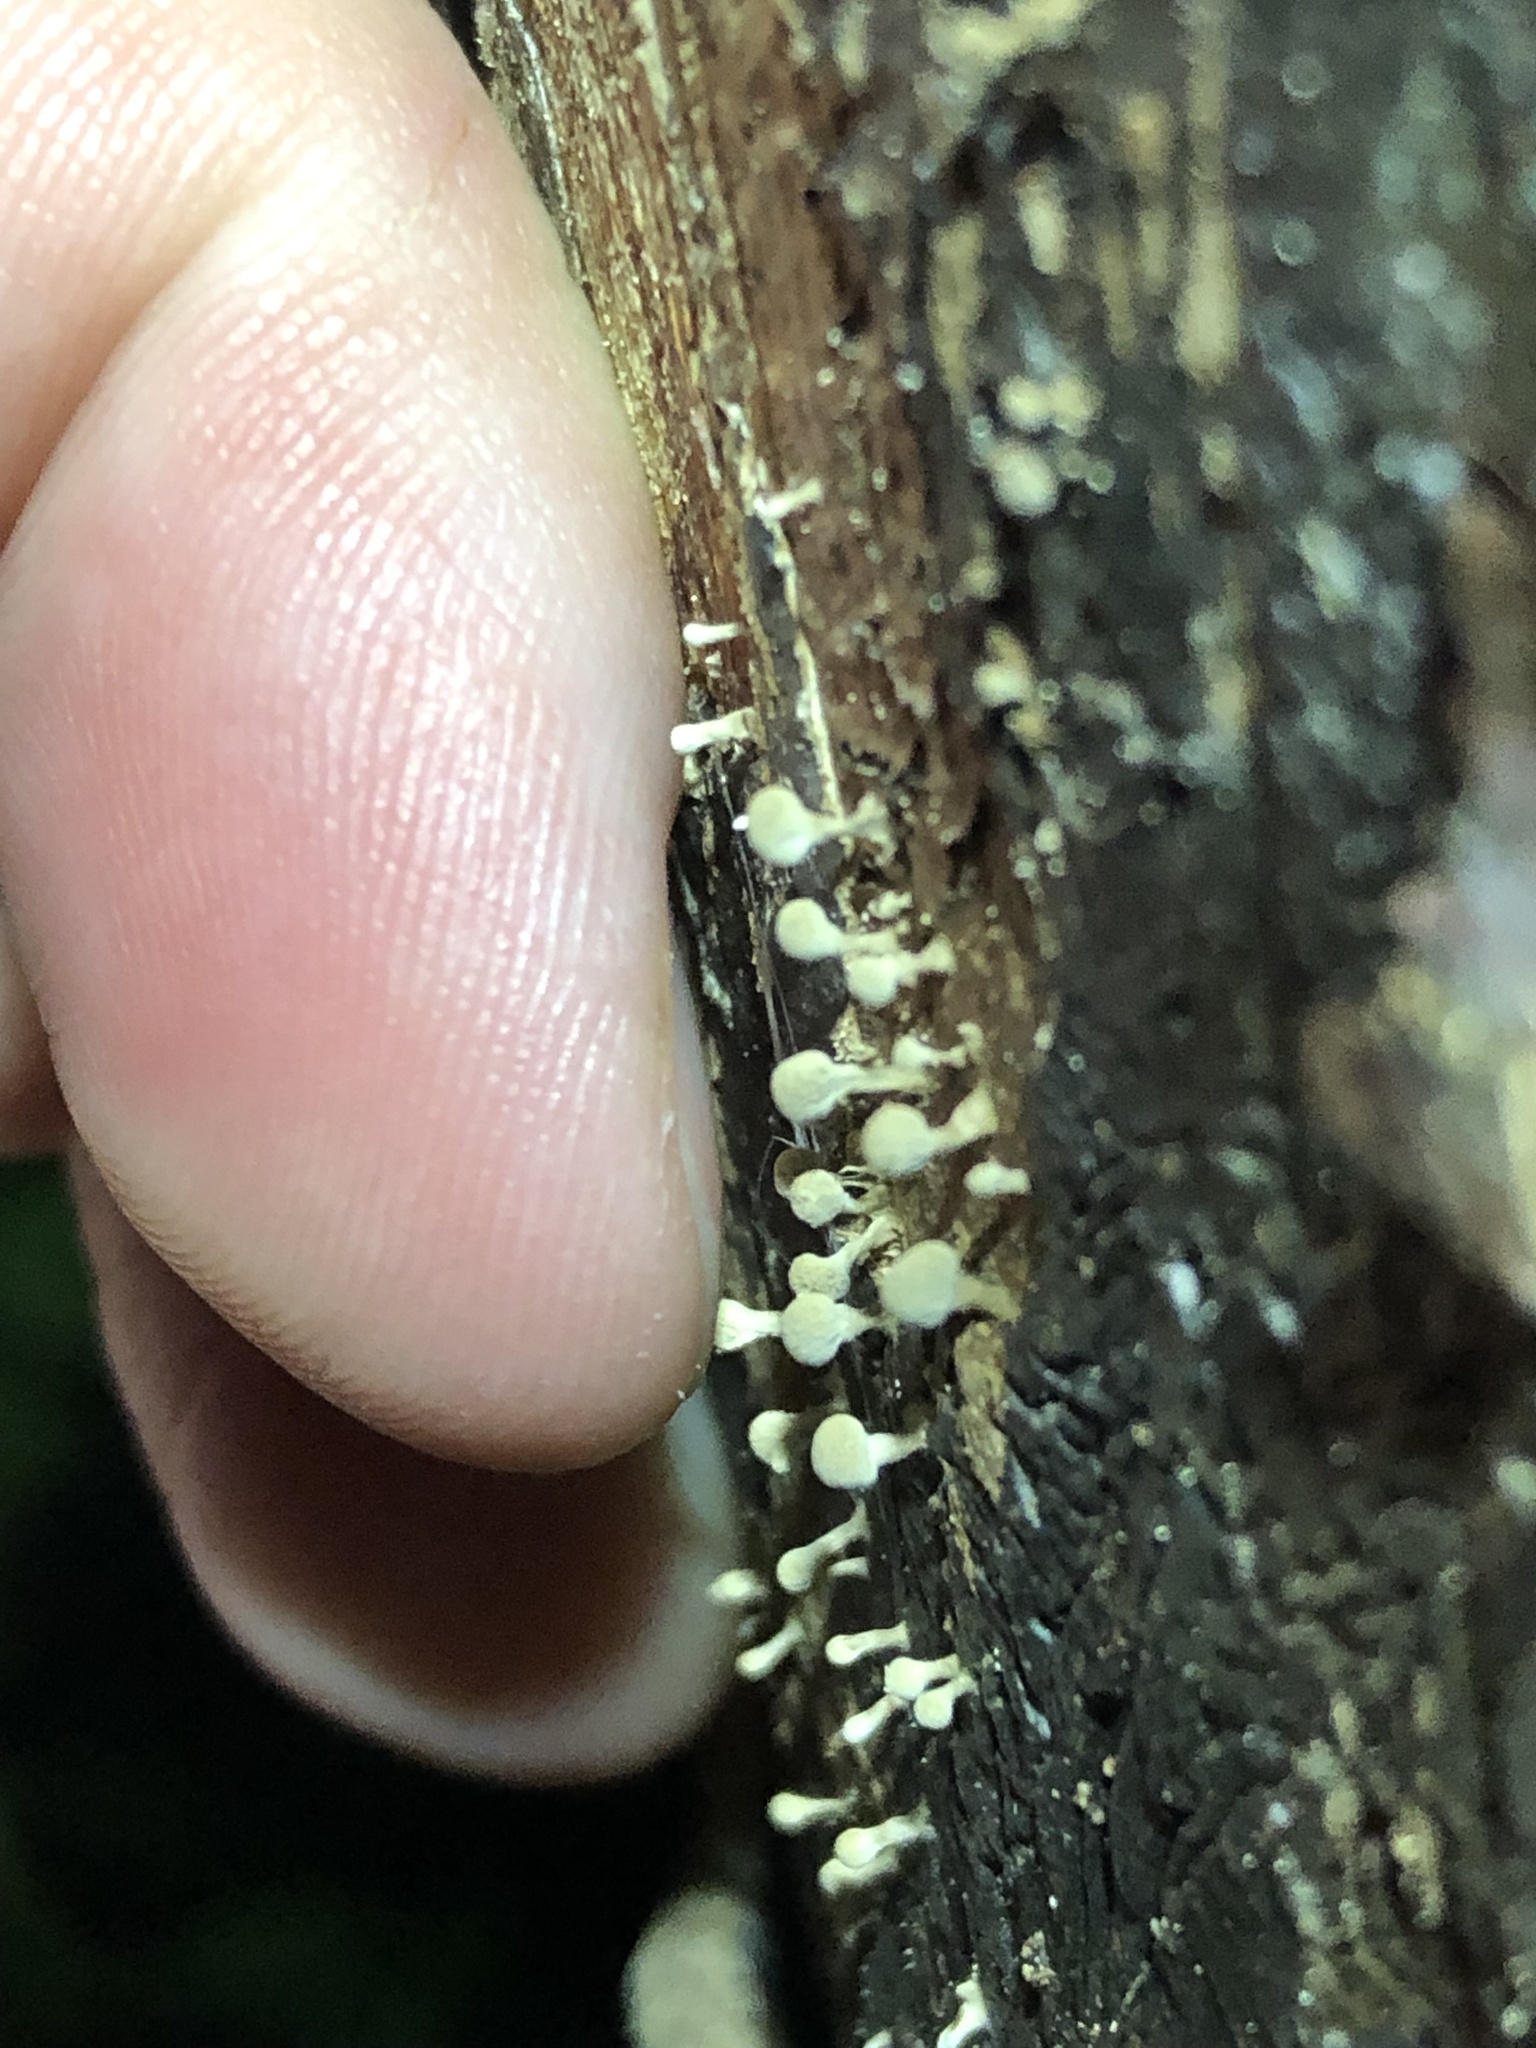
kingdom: Fungi
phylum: Basidiomycota
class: Atractiellomycetes
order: Atractiellales
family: Phleogenaceae
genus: Phleogena
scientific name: Phleogena faginea
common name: Fenugreek stalkball
